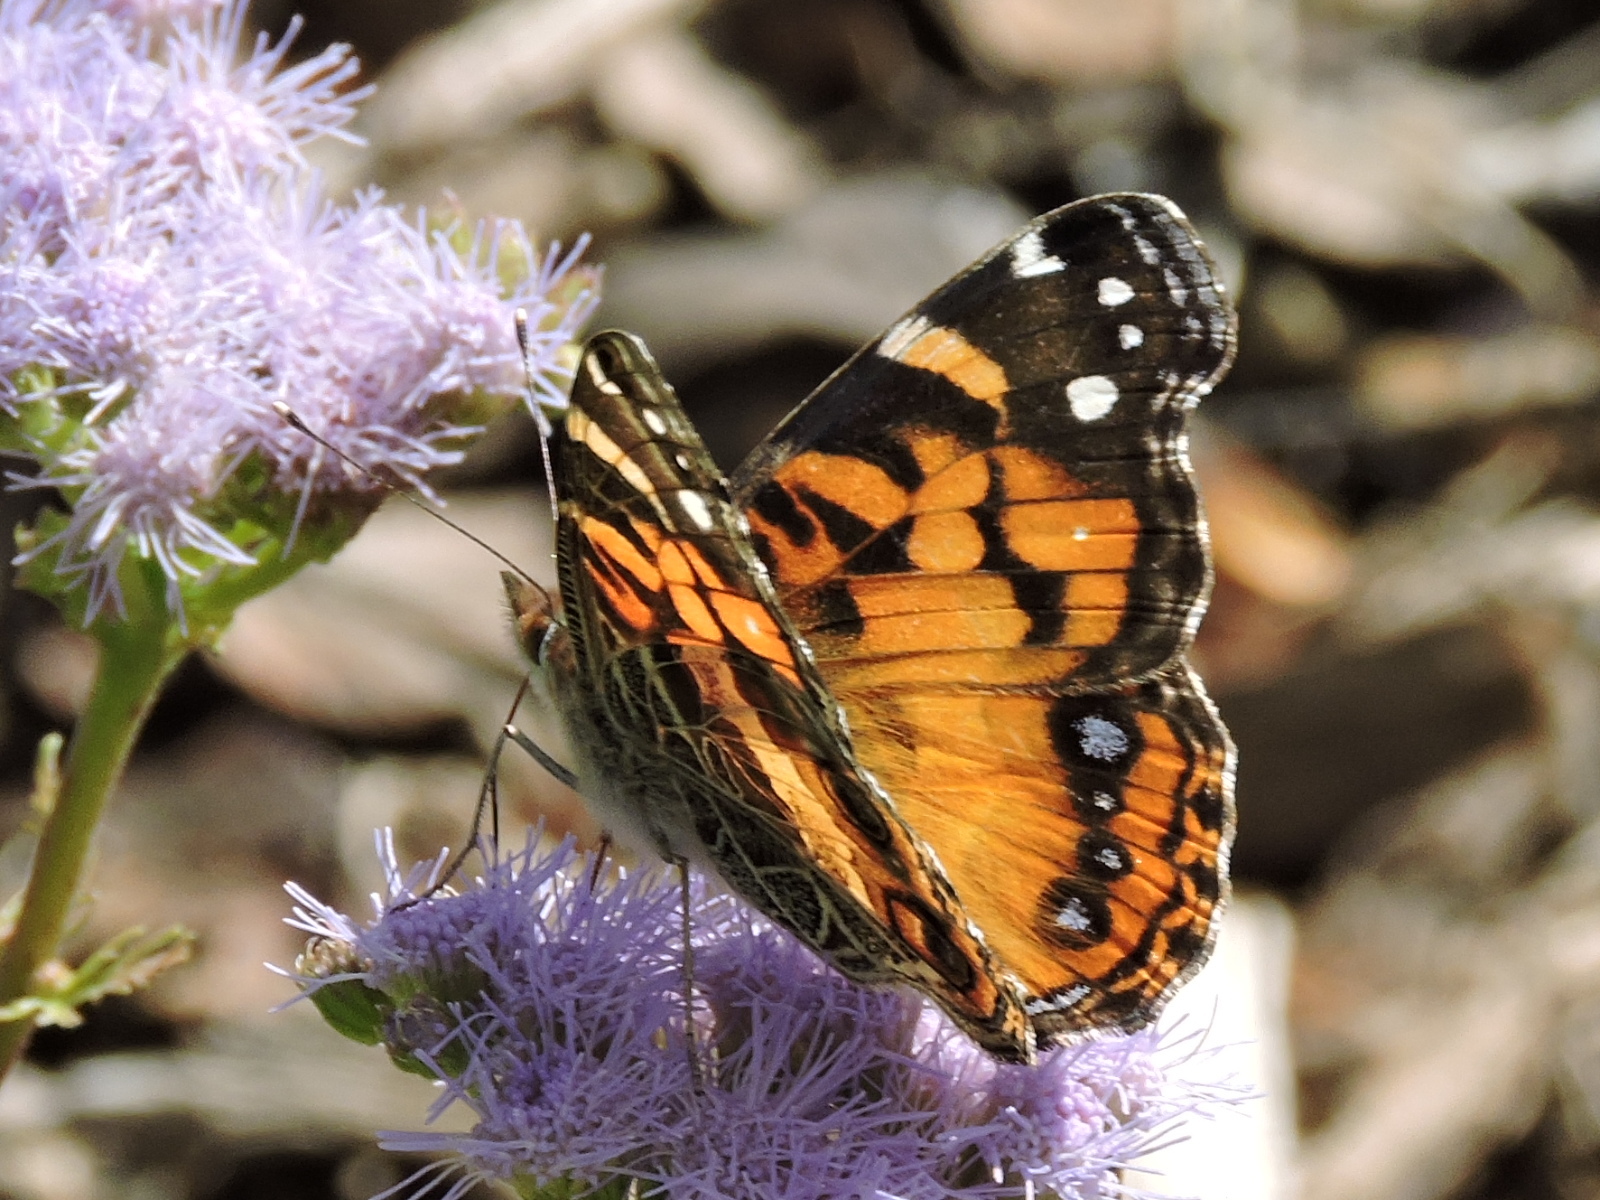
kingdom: Animalia
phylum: Arthropoda
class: Insecta
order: Lepidoptera
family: Nymphalidae
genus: Vanessa
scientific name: Vanessa virginiensis
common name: American lady
